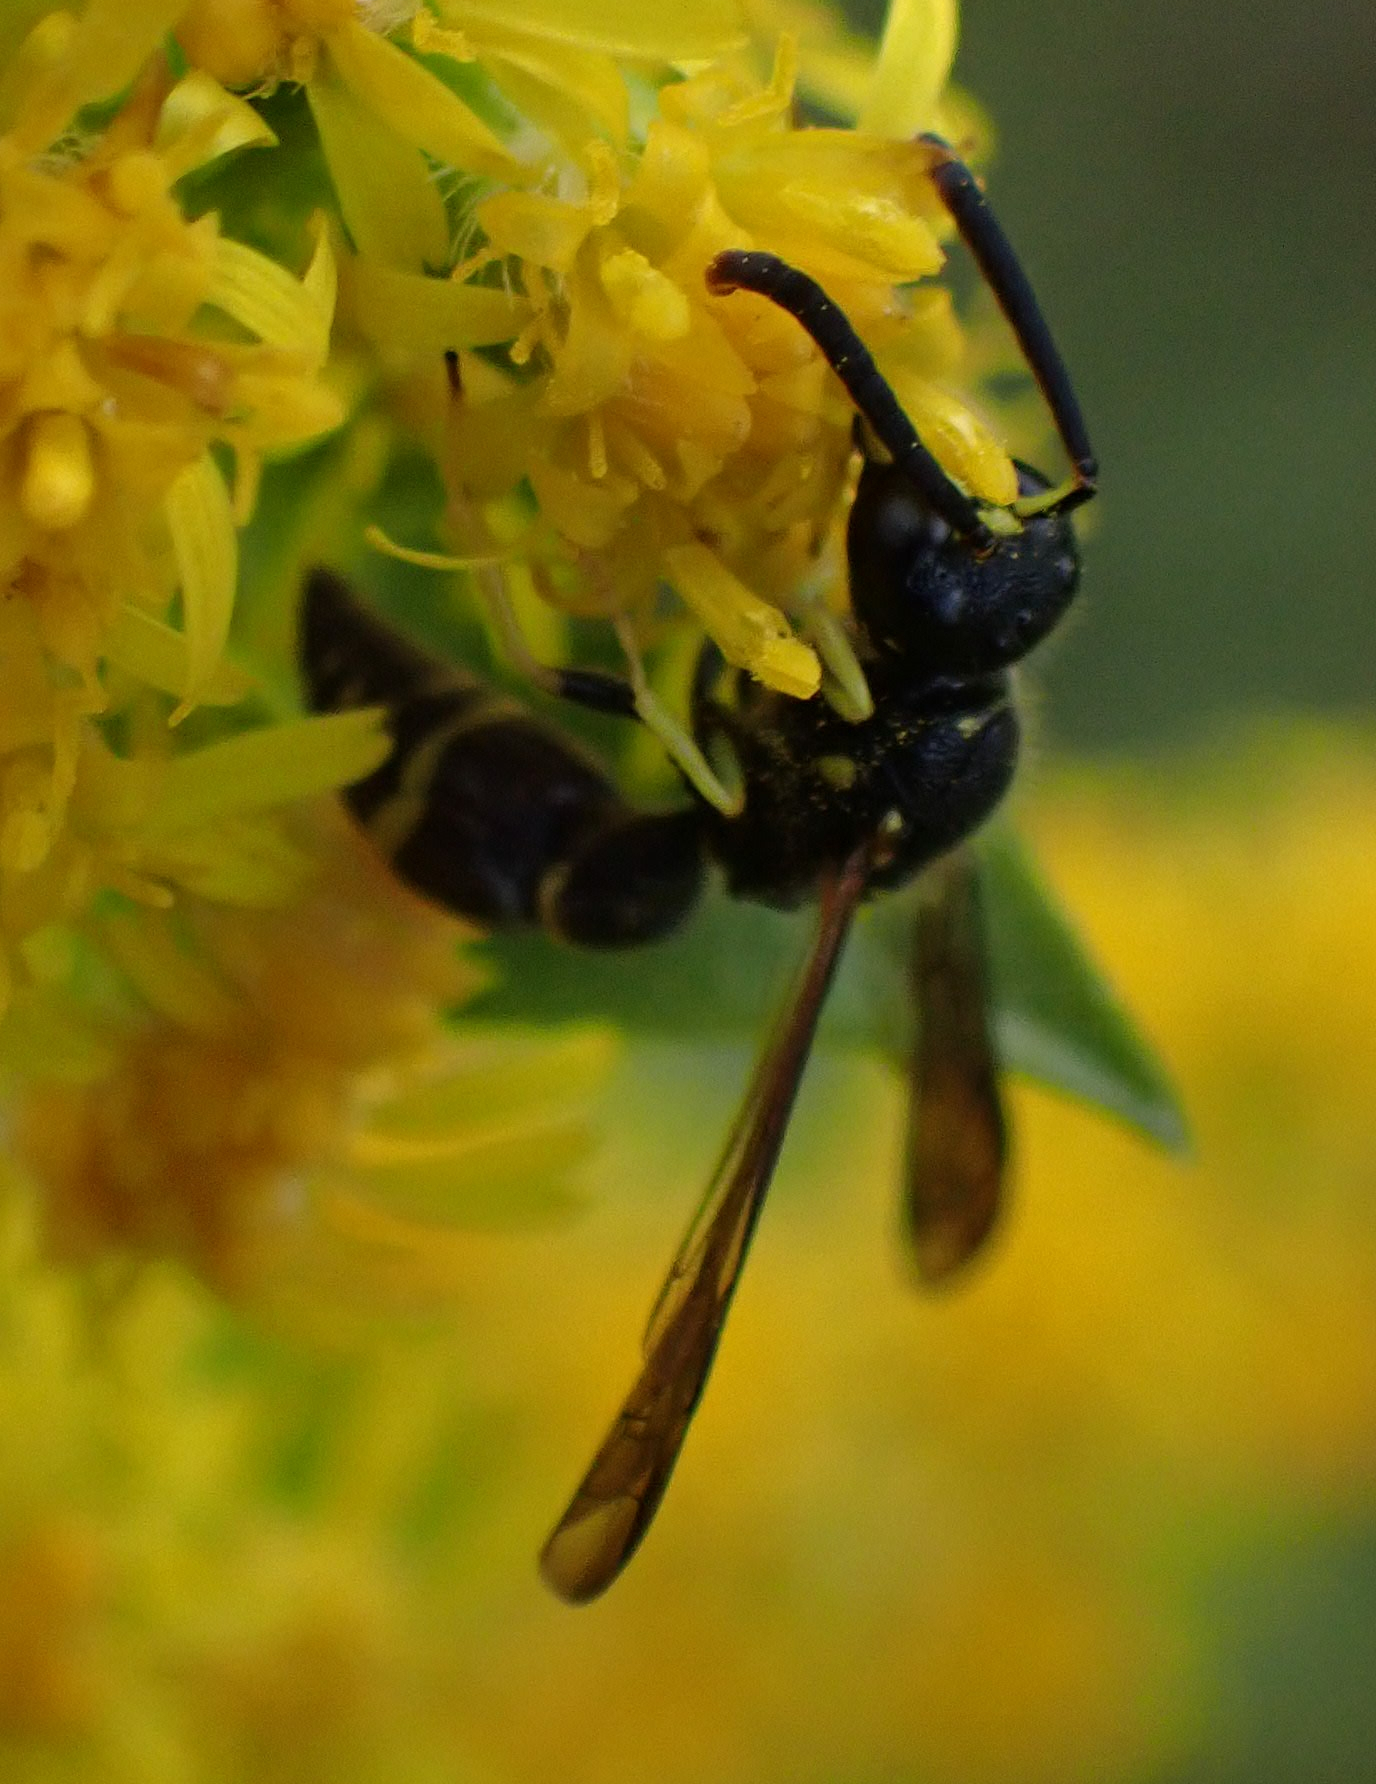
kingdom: Animalia
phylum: Arthropoda
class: Insecta
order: Hymenoptera
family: Vespidae
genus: Ancistrocerus
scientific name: Ancistrocerus adiabatus
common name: Bramble mason wasp
